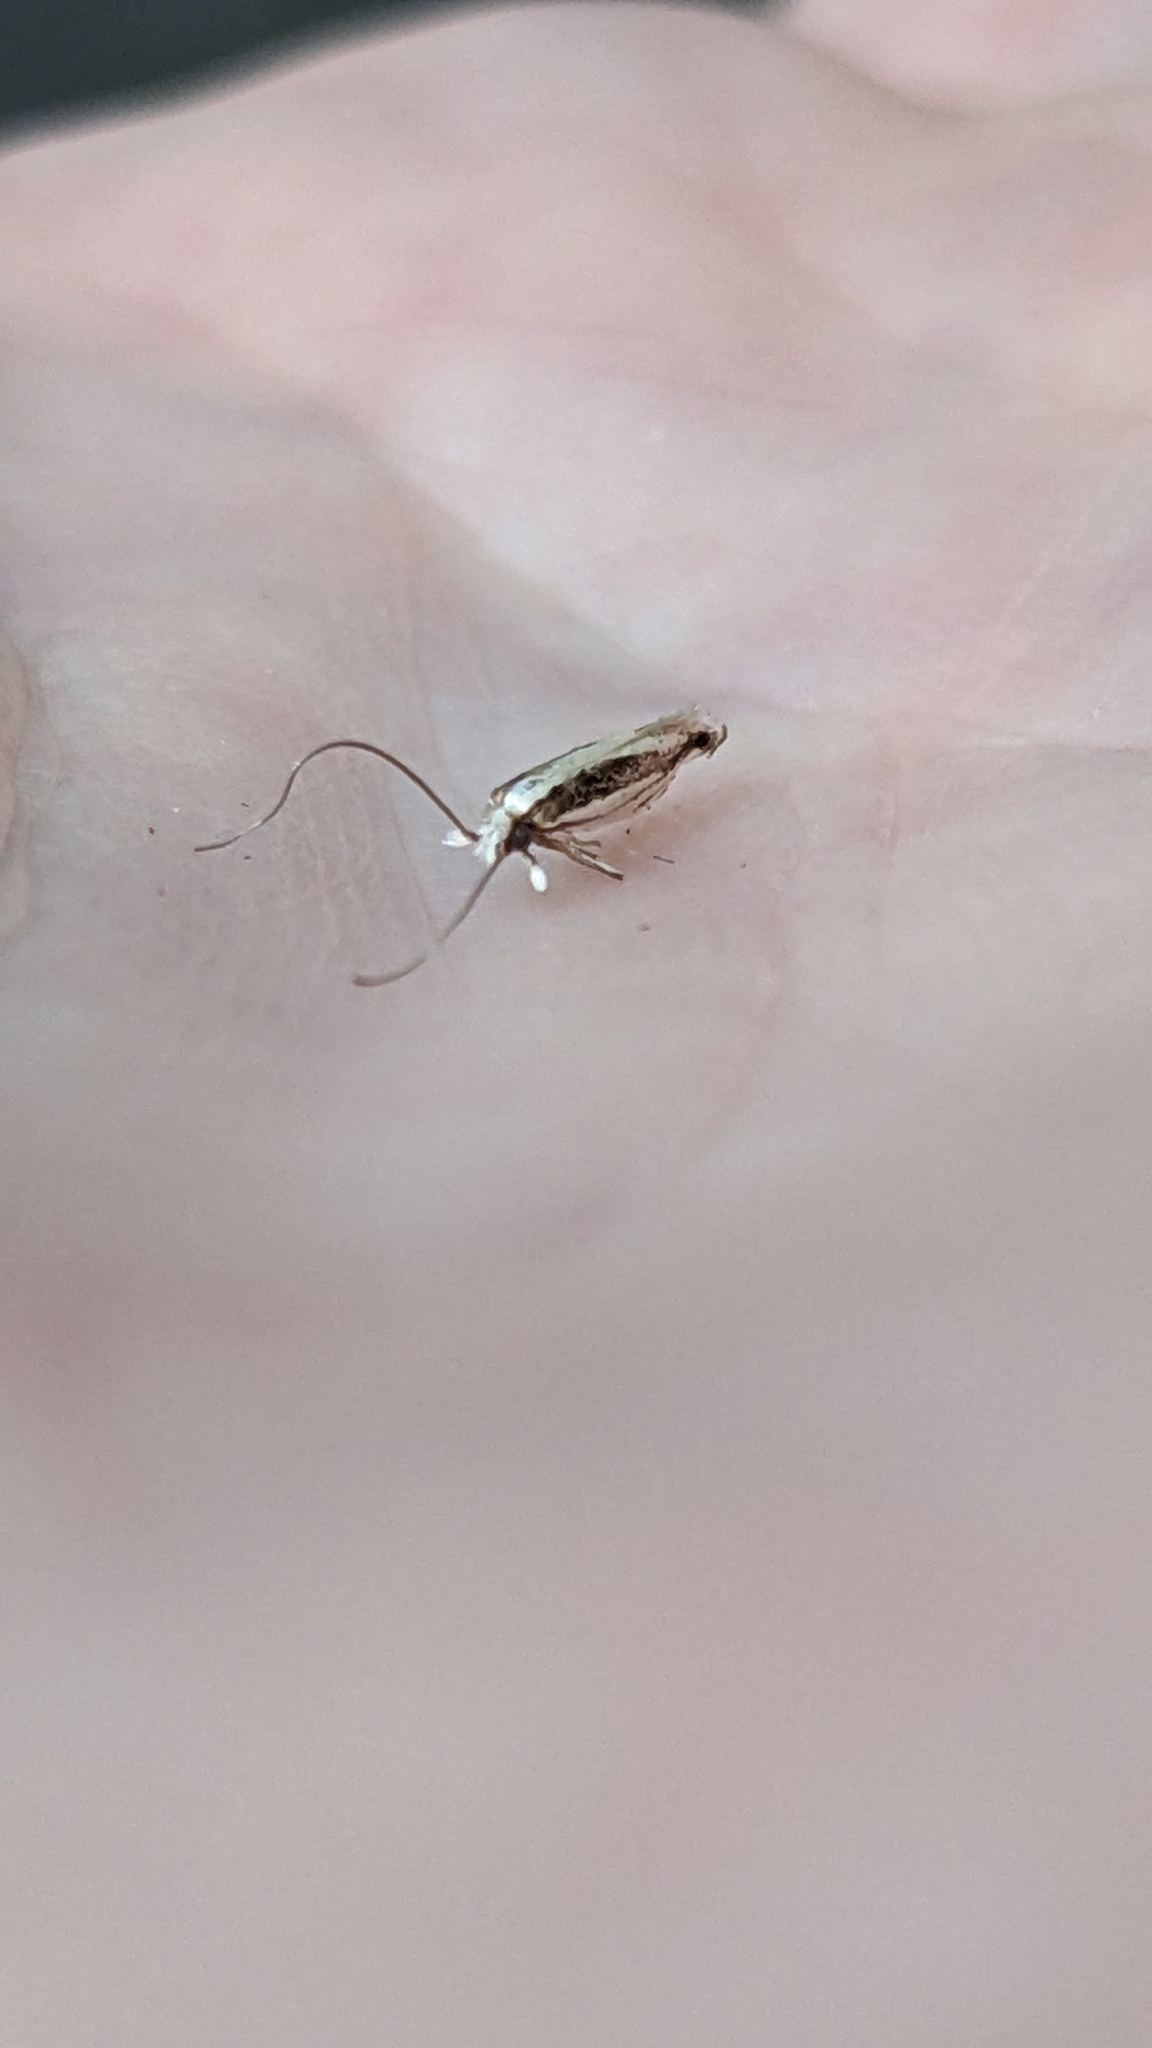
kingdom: Animalia
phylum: Arthropoda
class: Insecta
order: Lepidoptera
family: Tineidae
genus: Erechthias
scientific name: Erechthias stilbella
